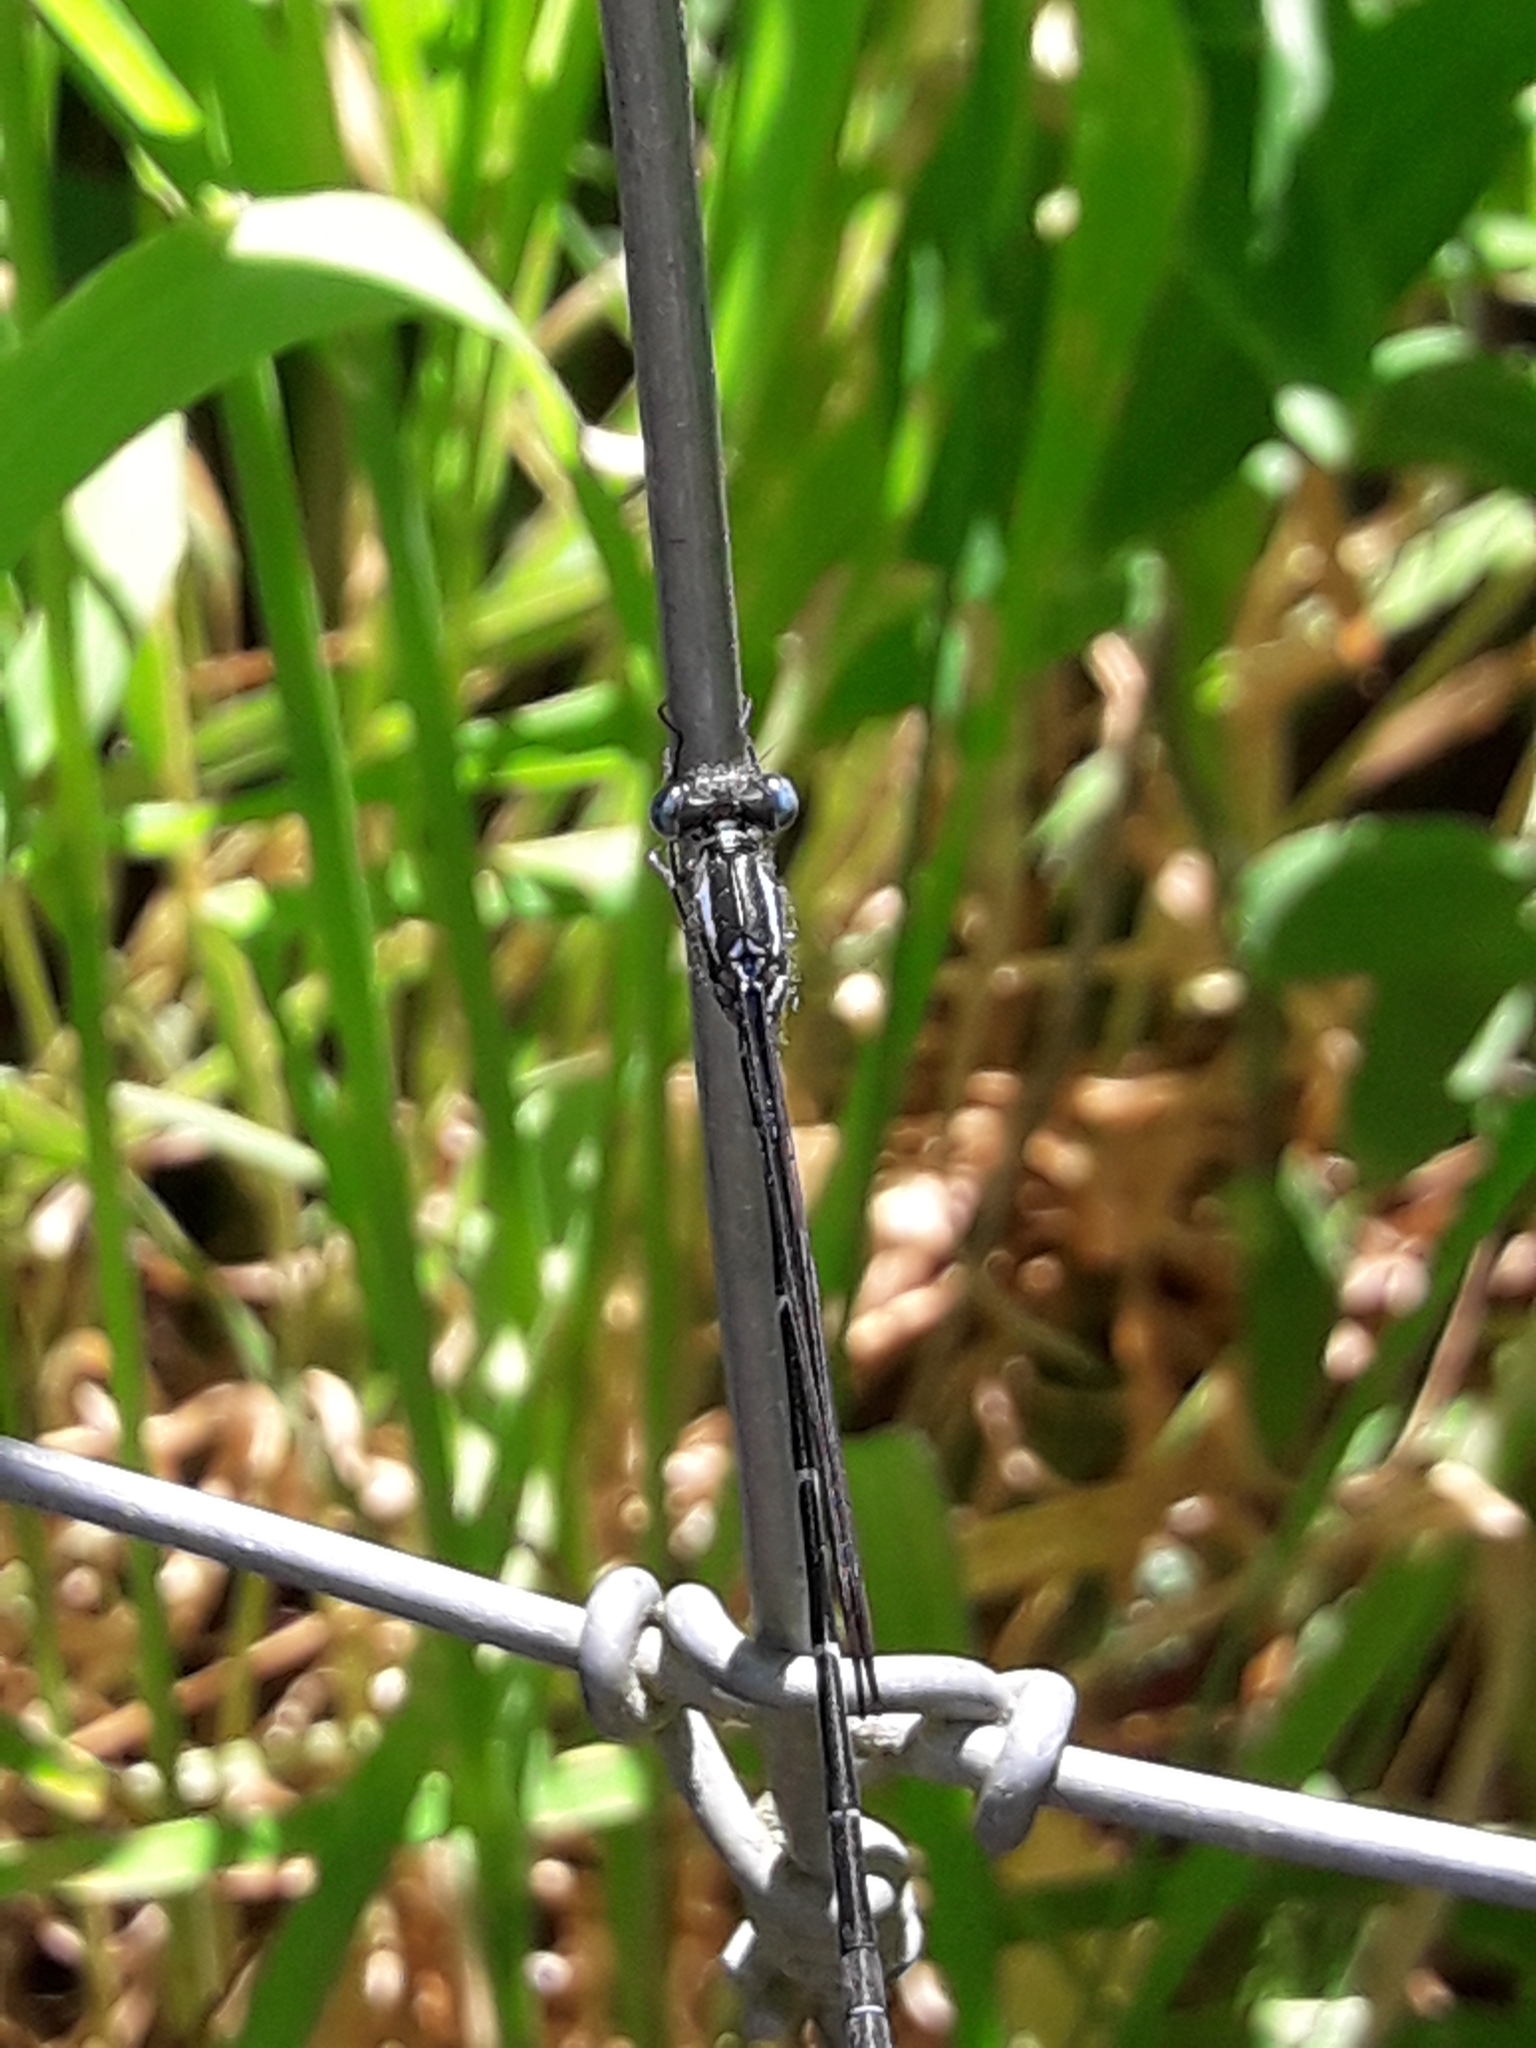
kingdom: Animalia
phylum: Arthropoda
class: Insecta
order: Odonata
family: Lestidae
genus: Austrolestes
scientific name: Austrolestes colensonis
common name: Blue damselfly
